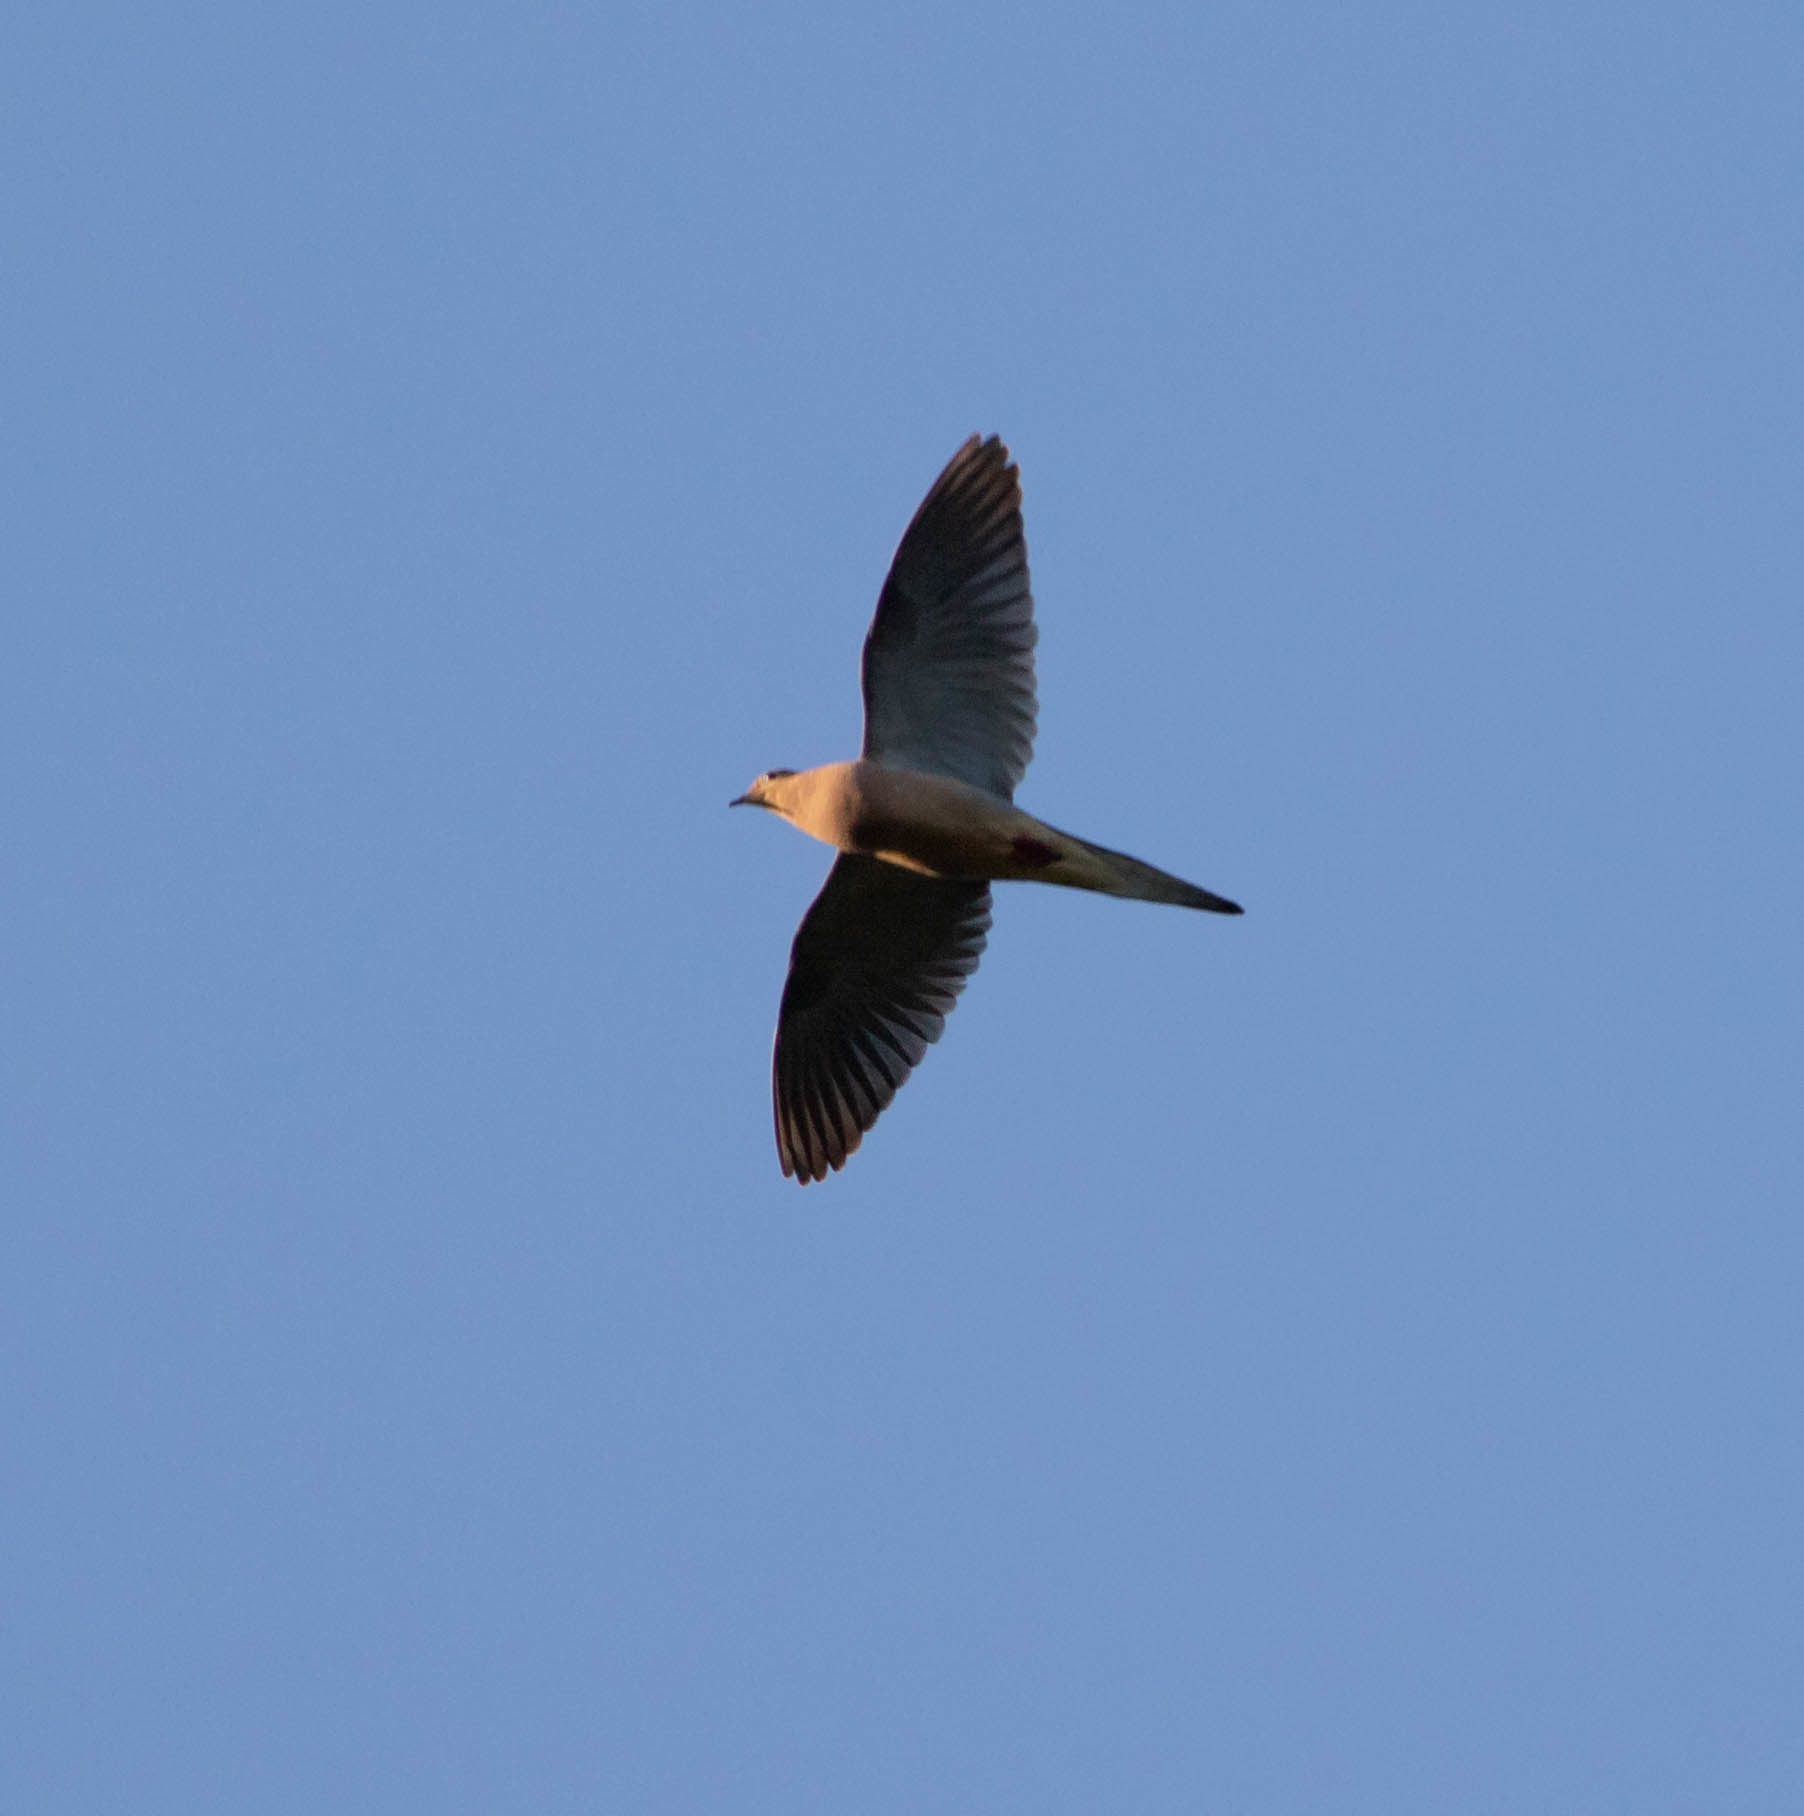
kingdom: Animalia
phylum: Chordata
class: Aves
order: Columbiformes
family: Columbidae
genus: Zenaida
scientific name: Zenaida macroura
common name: Mourning dove
